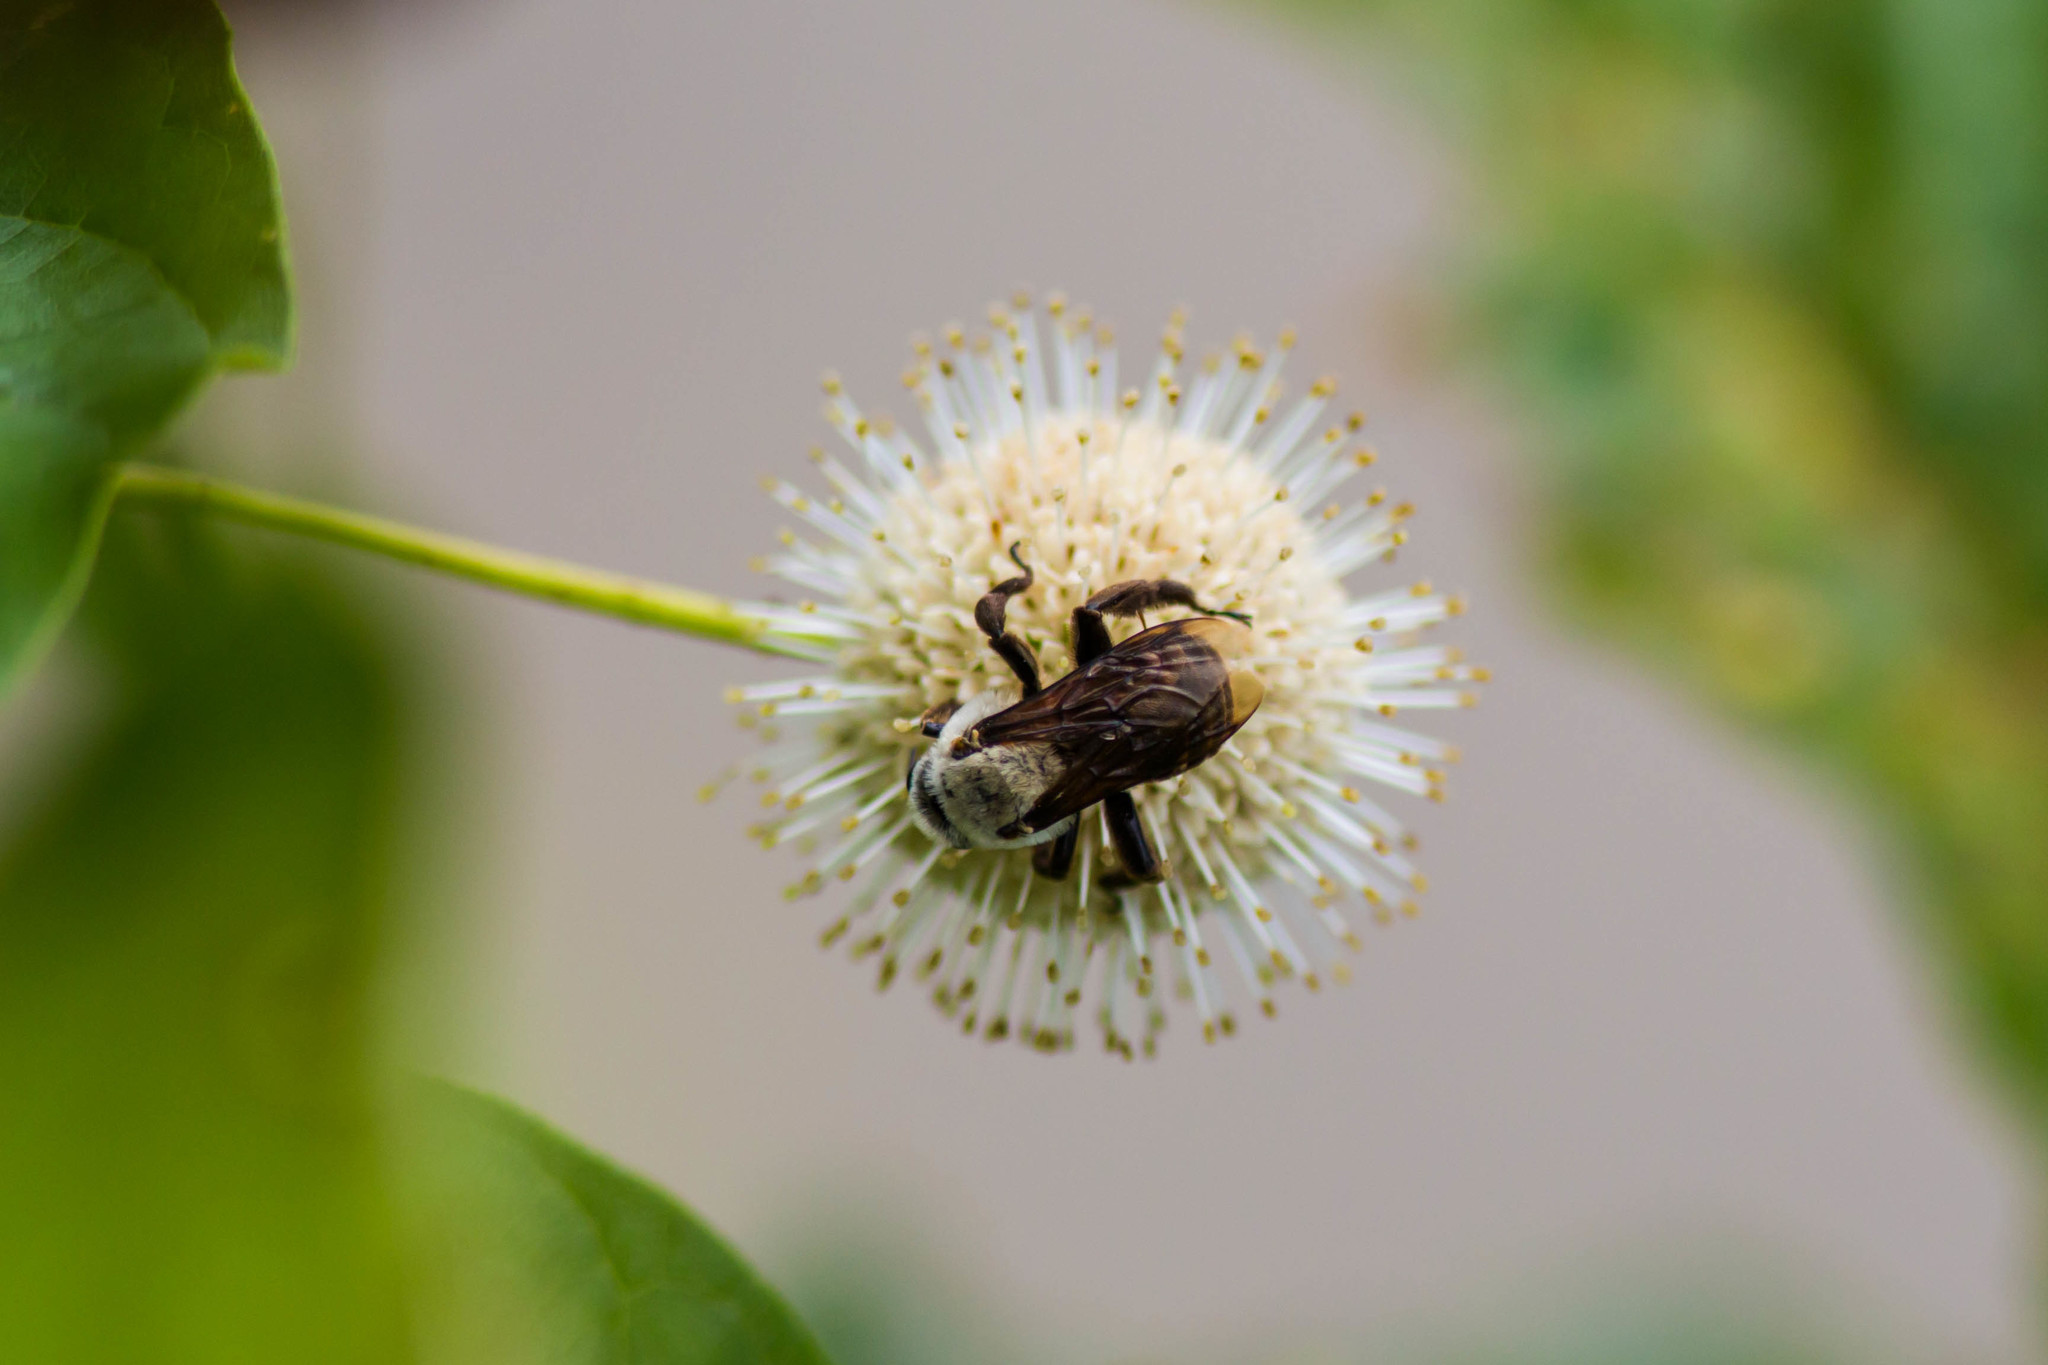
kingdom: Animalia
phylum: Arthropoda
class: Insecta
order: Hymenoptera
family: Apidae
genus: Ptilothrix
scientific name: Ptilothrix bombiformis
